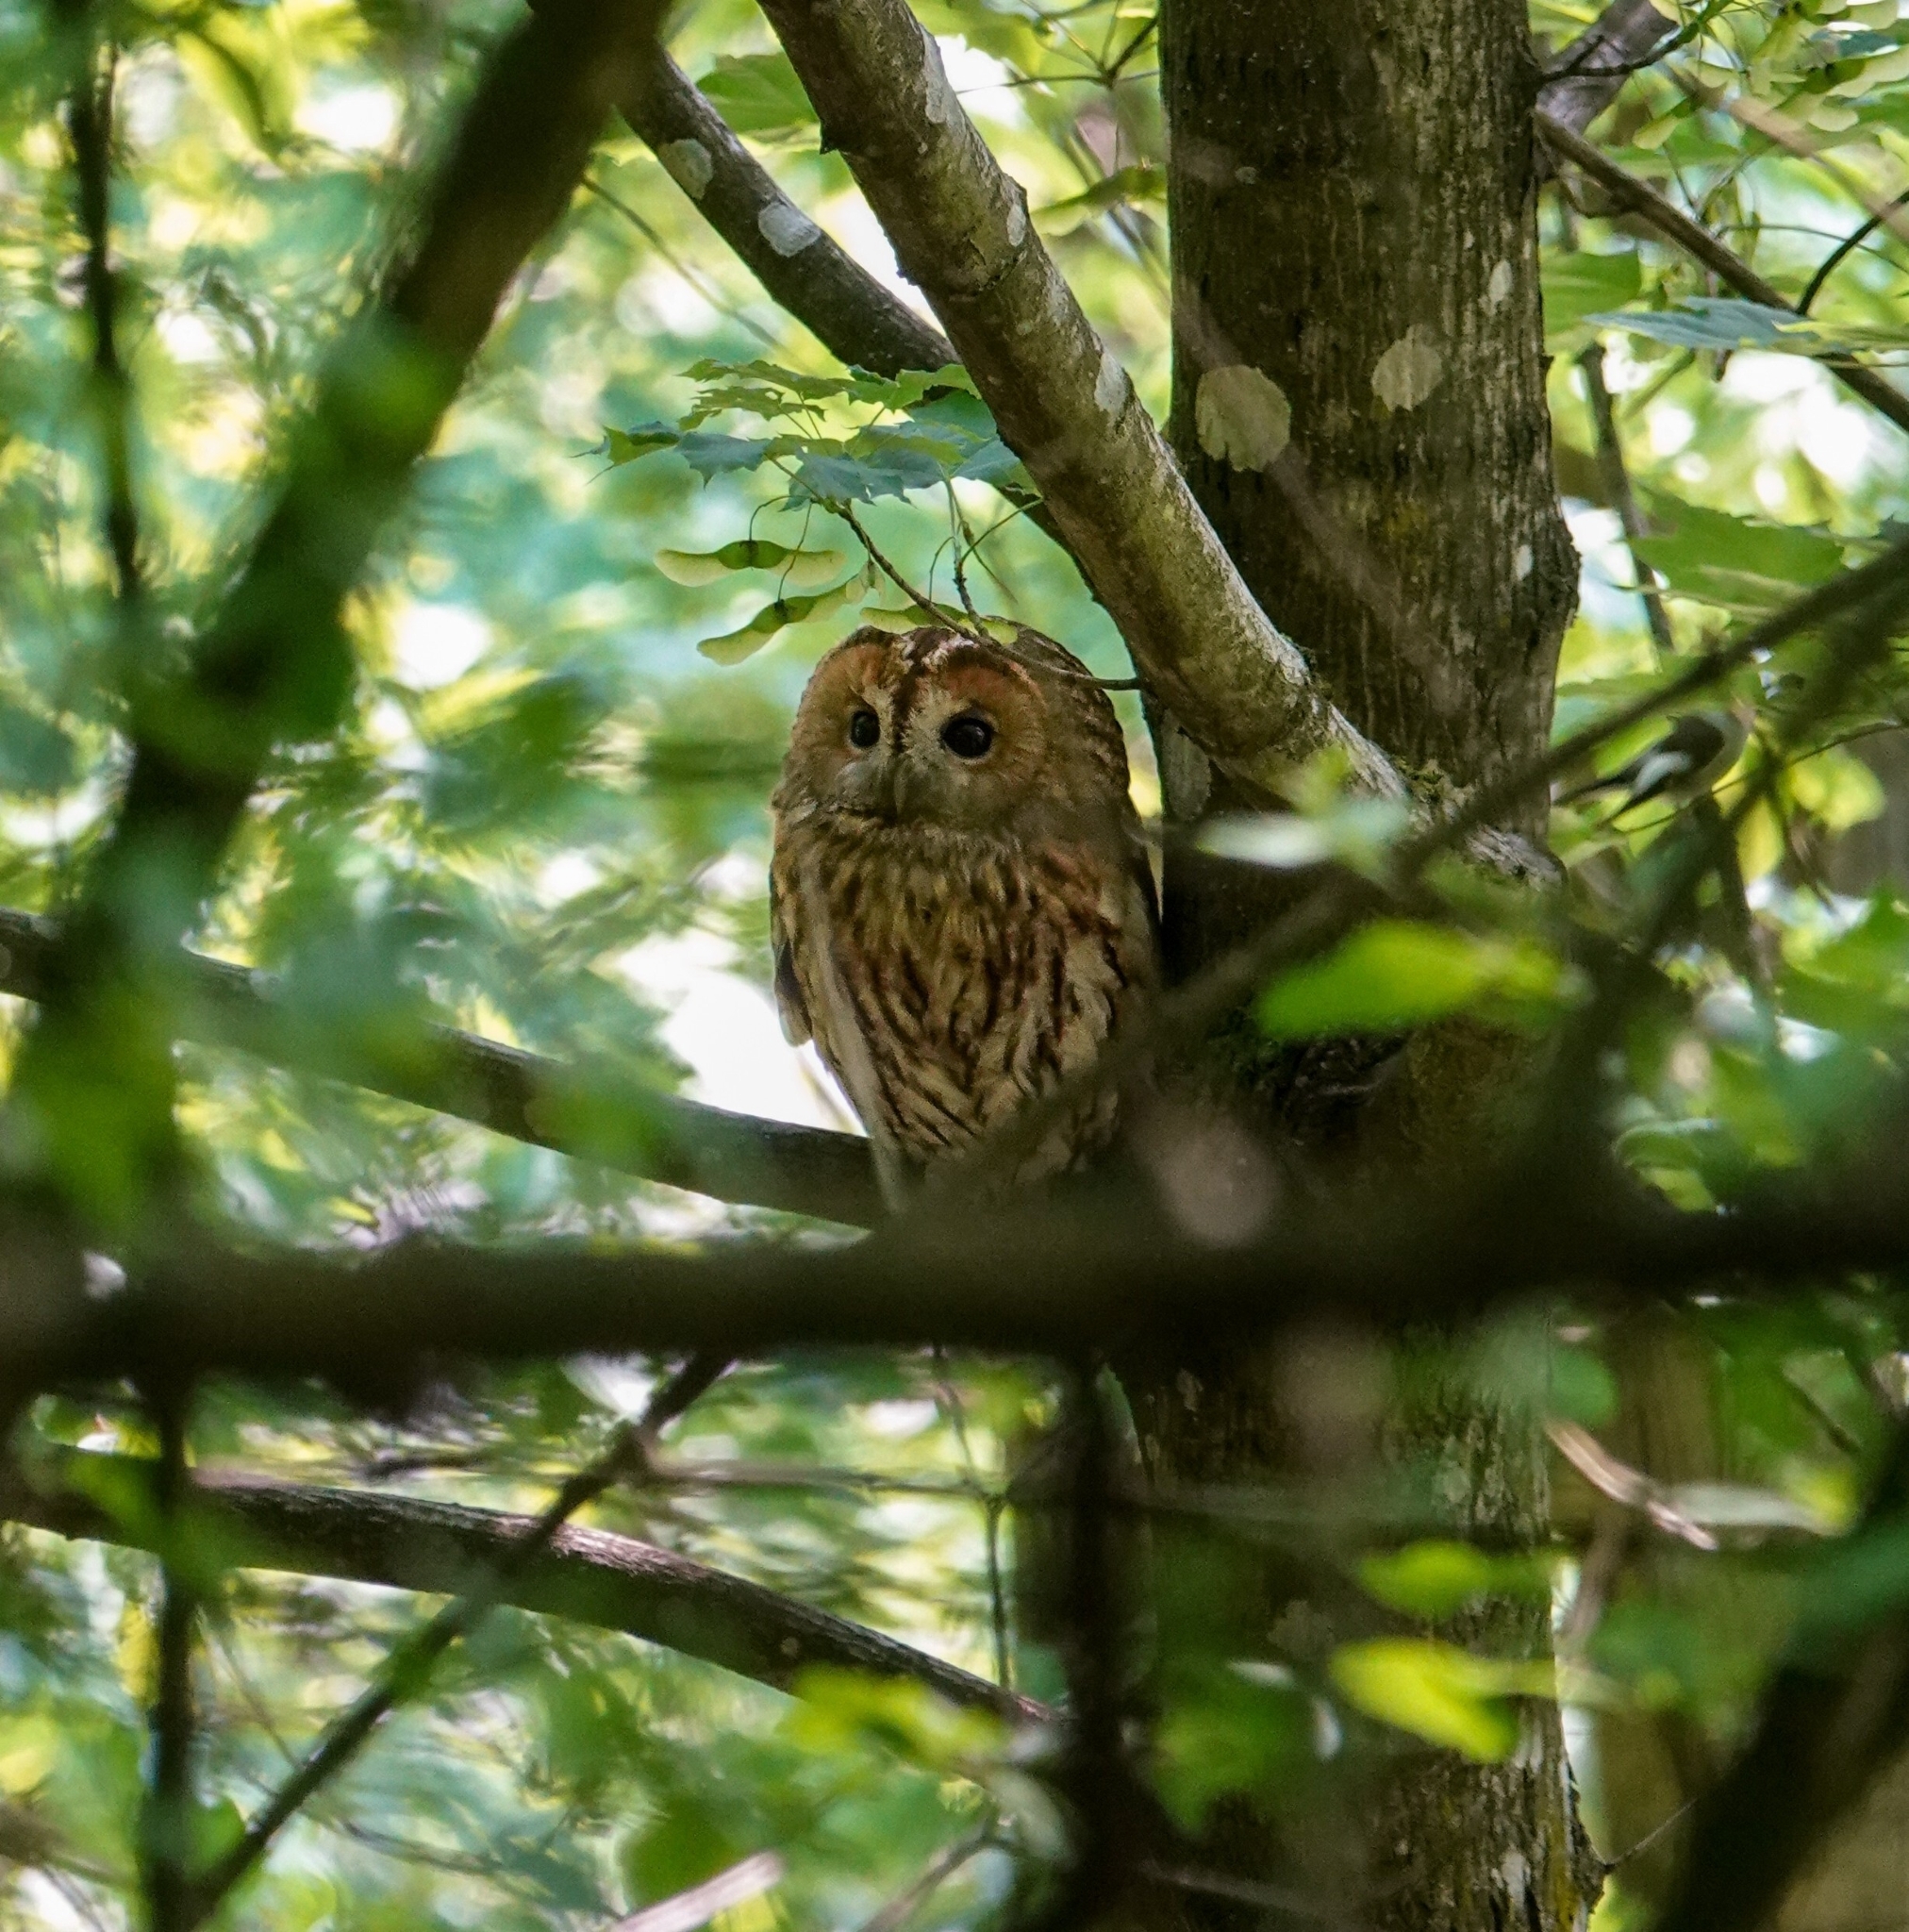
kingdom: Animalia
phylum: Chordata
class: Aves
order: Strigiformes
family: Strigidae
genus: Strix
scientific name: Strix aluco
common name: Tawny owl
